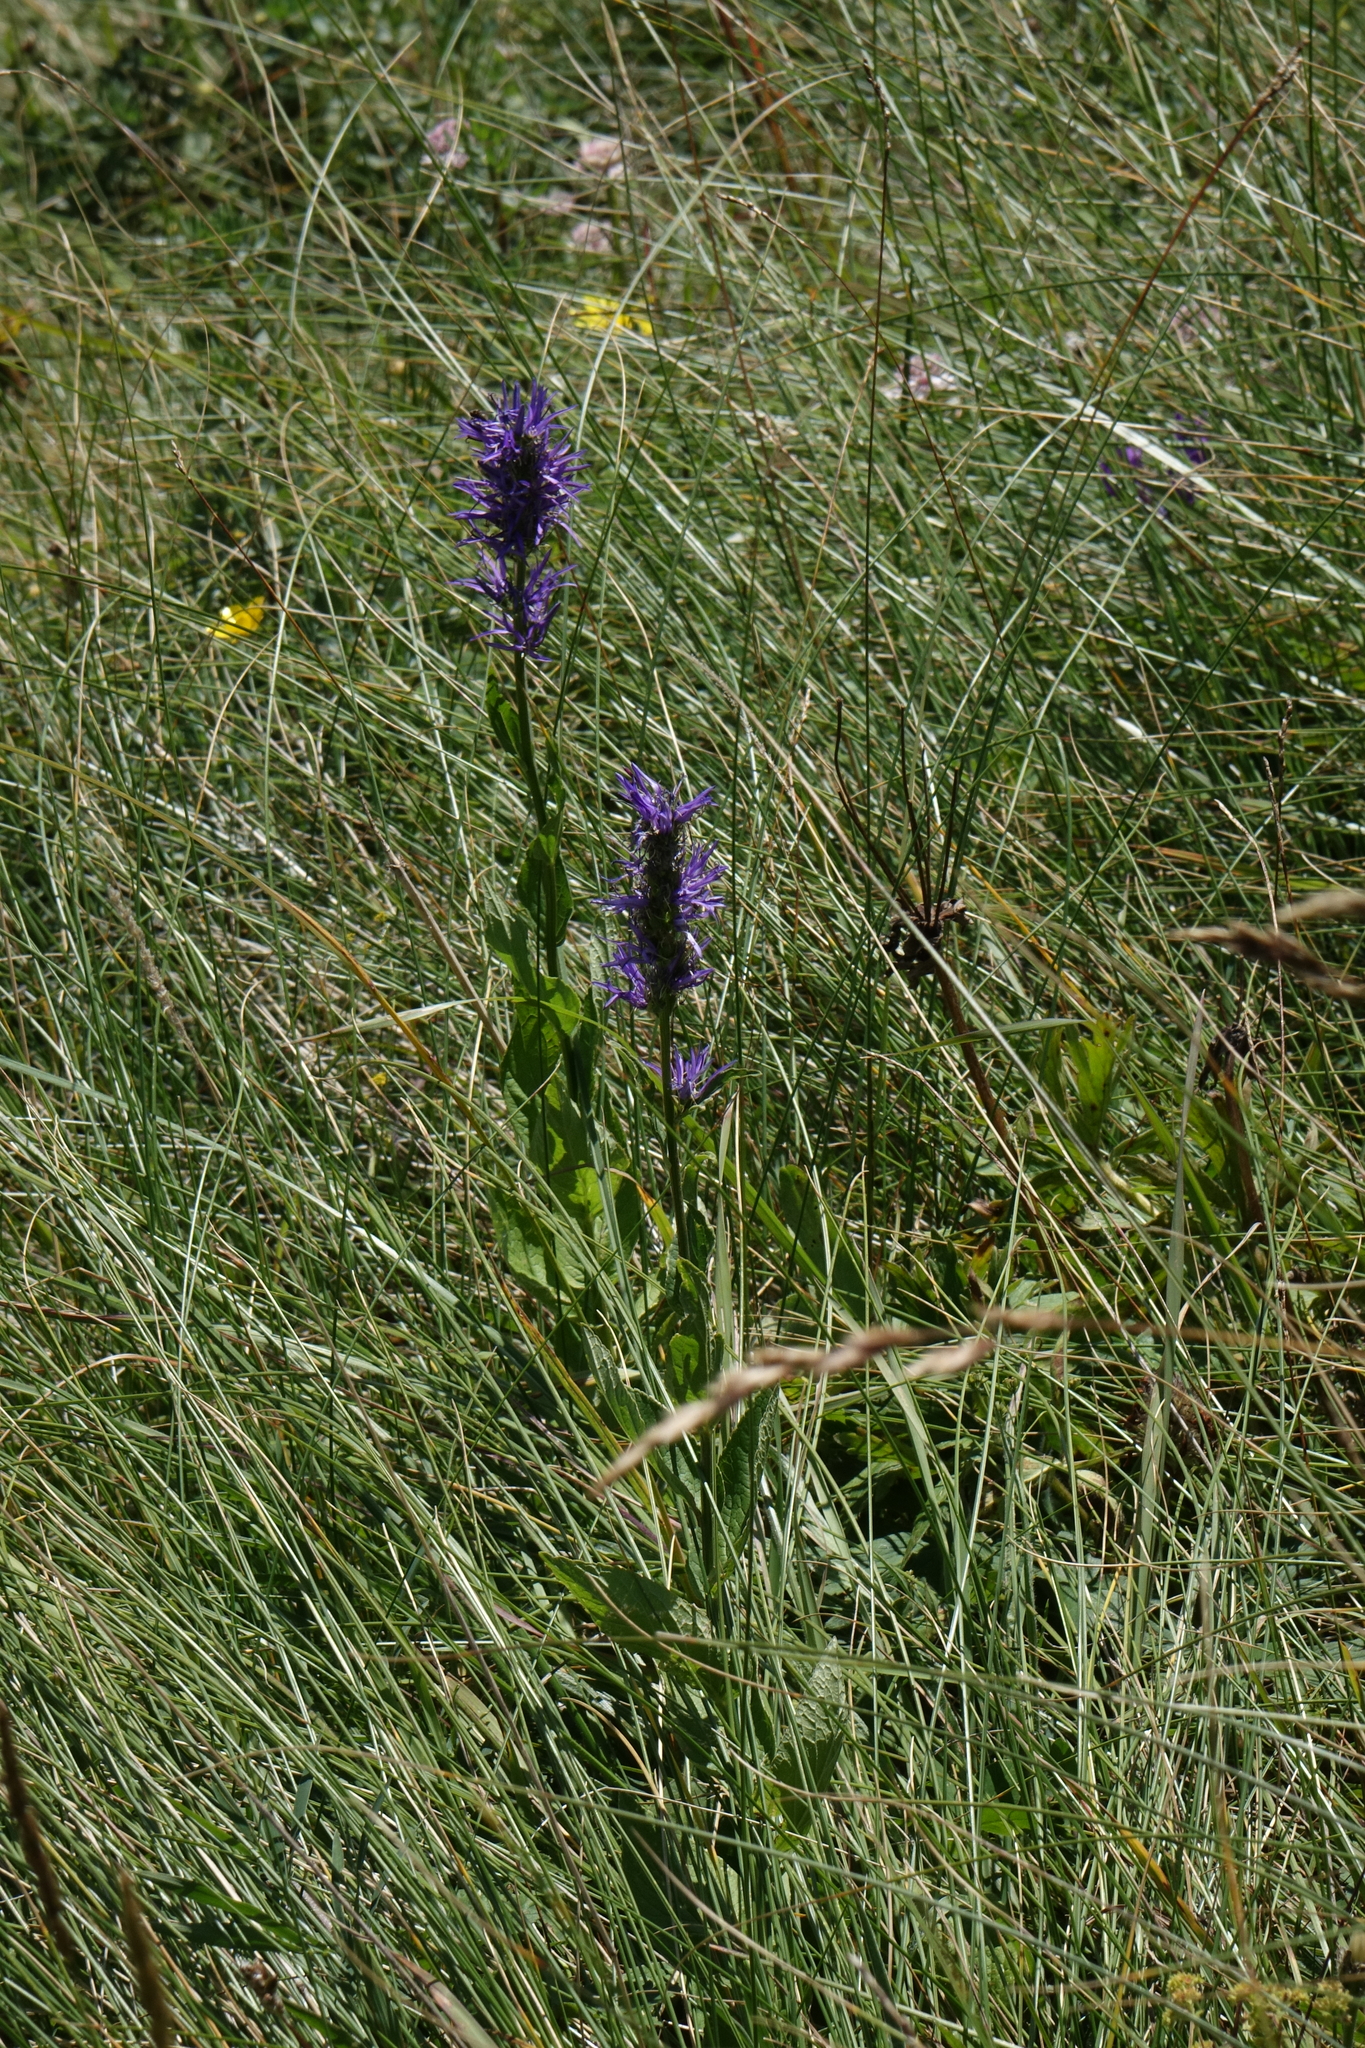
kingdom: Plantae
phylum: Tracheophyta
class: Magnoliopsida
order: Asterales
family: Campanulaceae
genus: Asyneuma
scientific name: Asyneuma campanuloides
